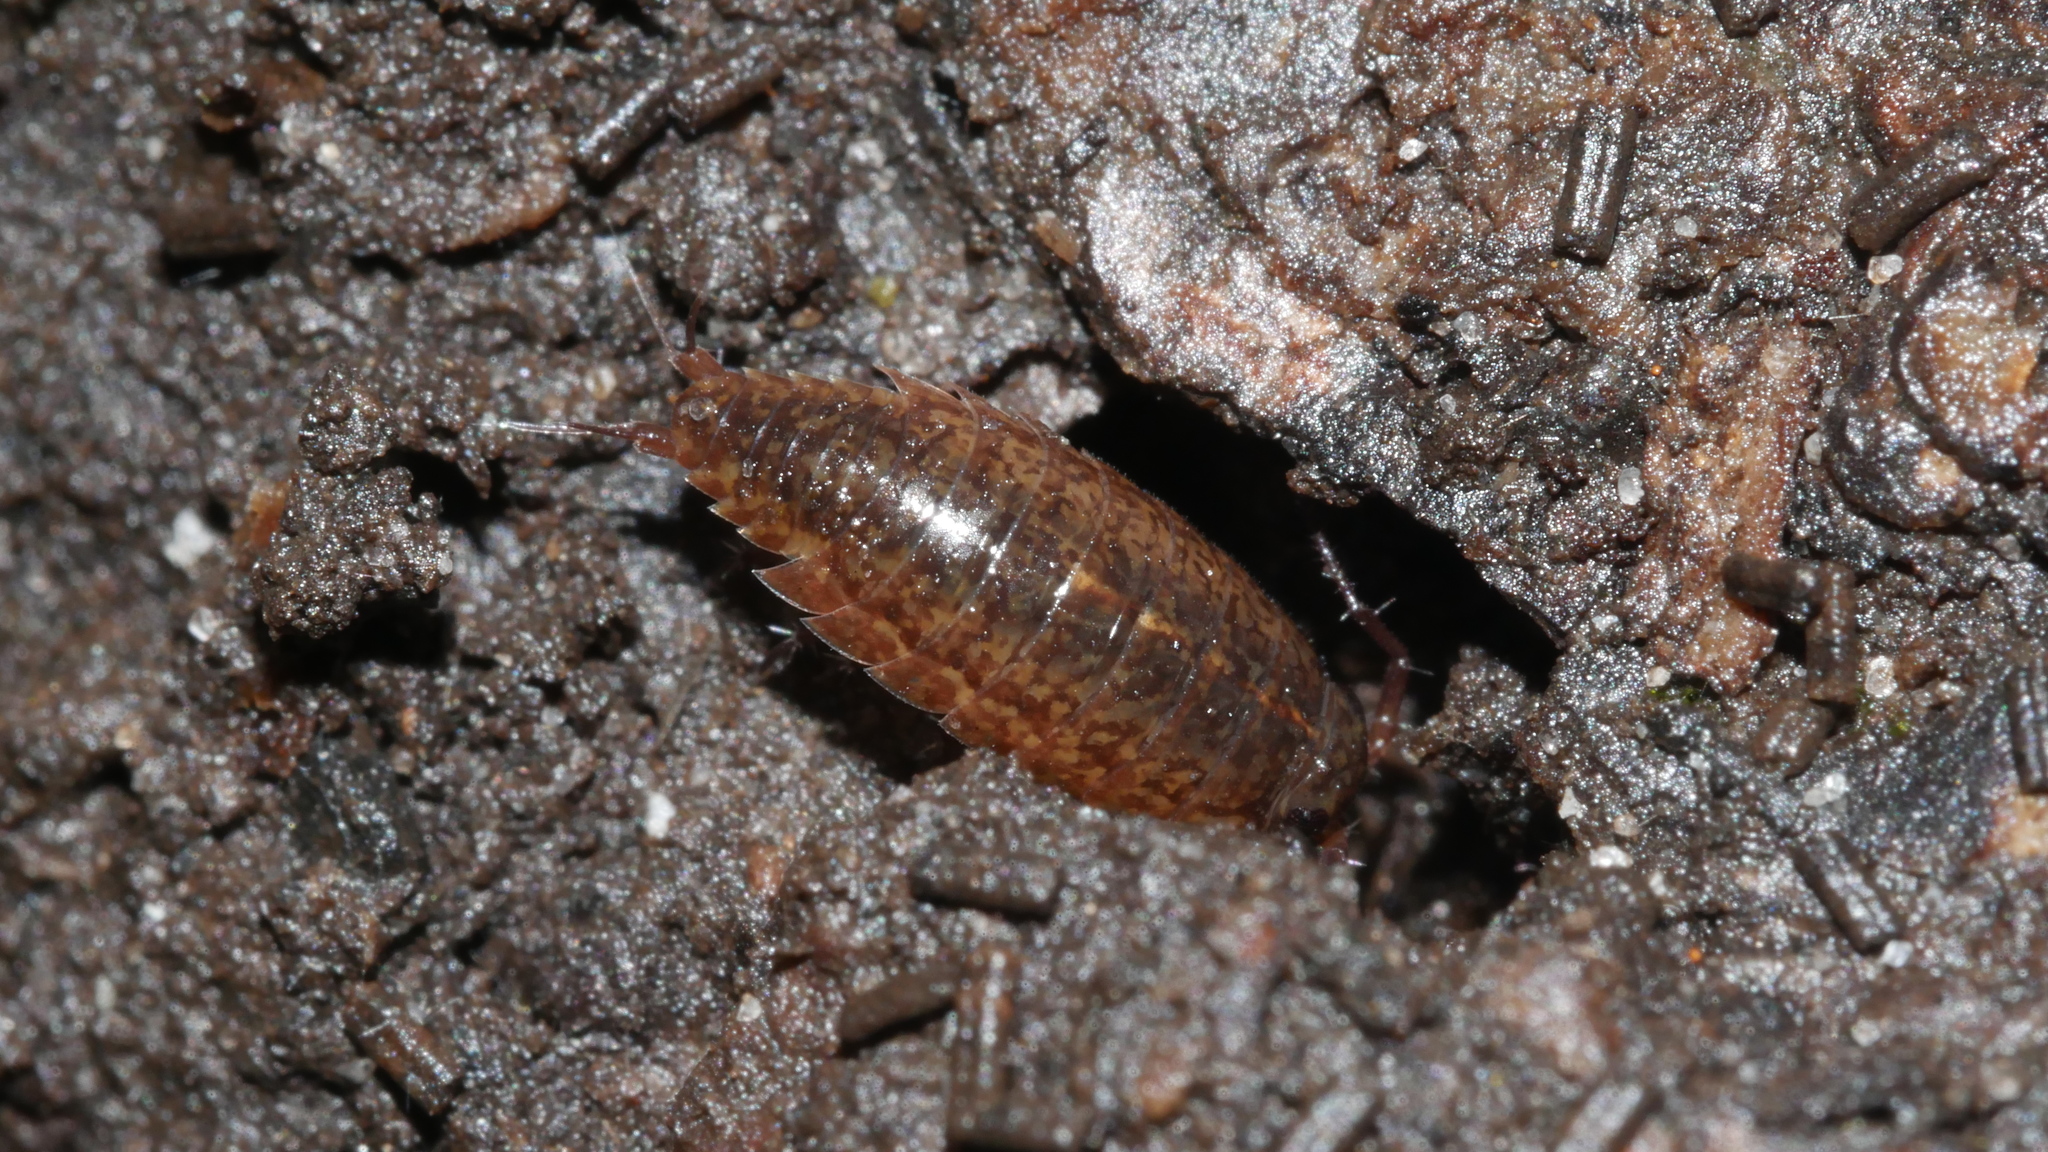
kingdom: Animalia
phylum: Arthropoda
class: Malacostraca
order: Isopoda
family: Ligiidae
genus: Ligidium
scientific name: Ligidium elrodii
